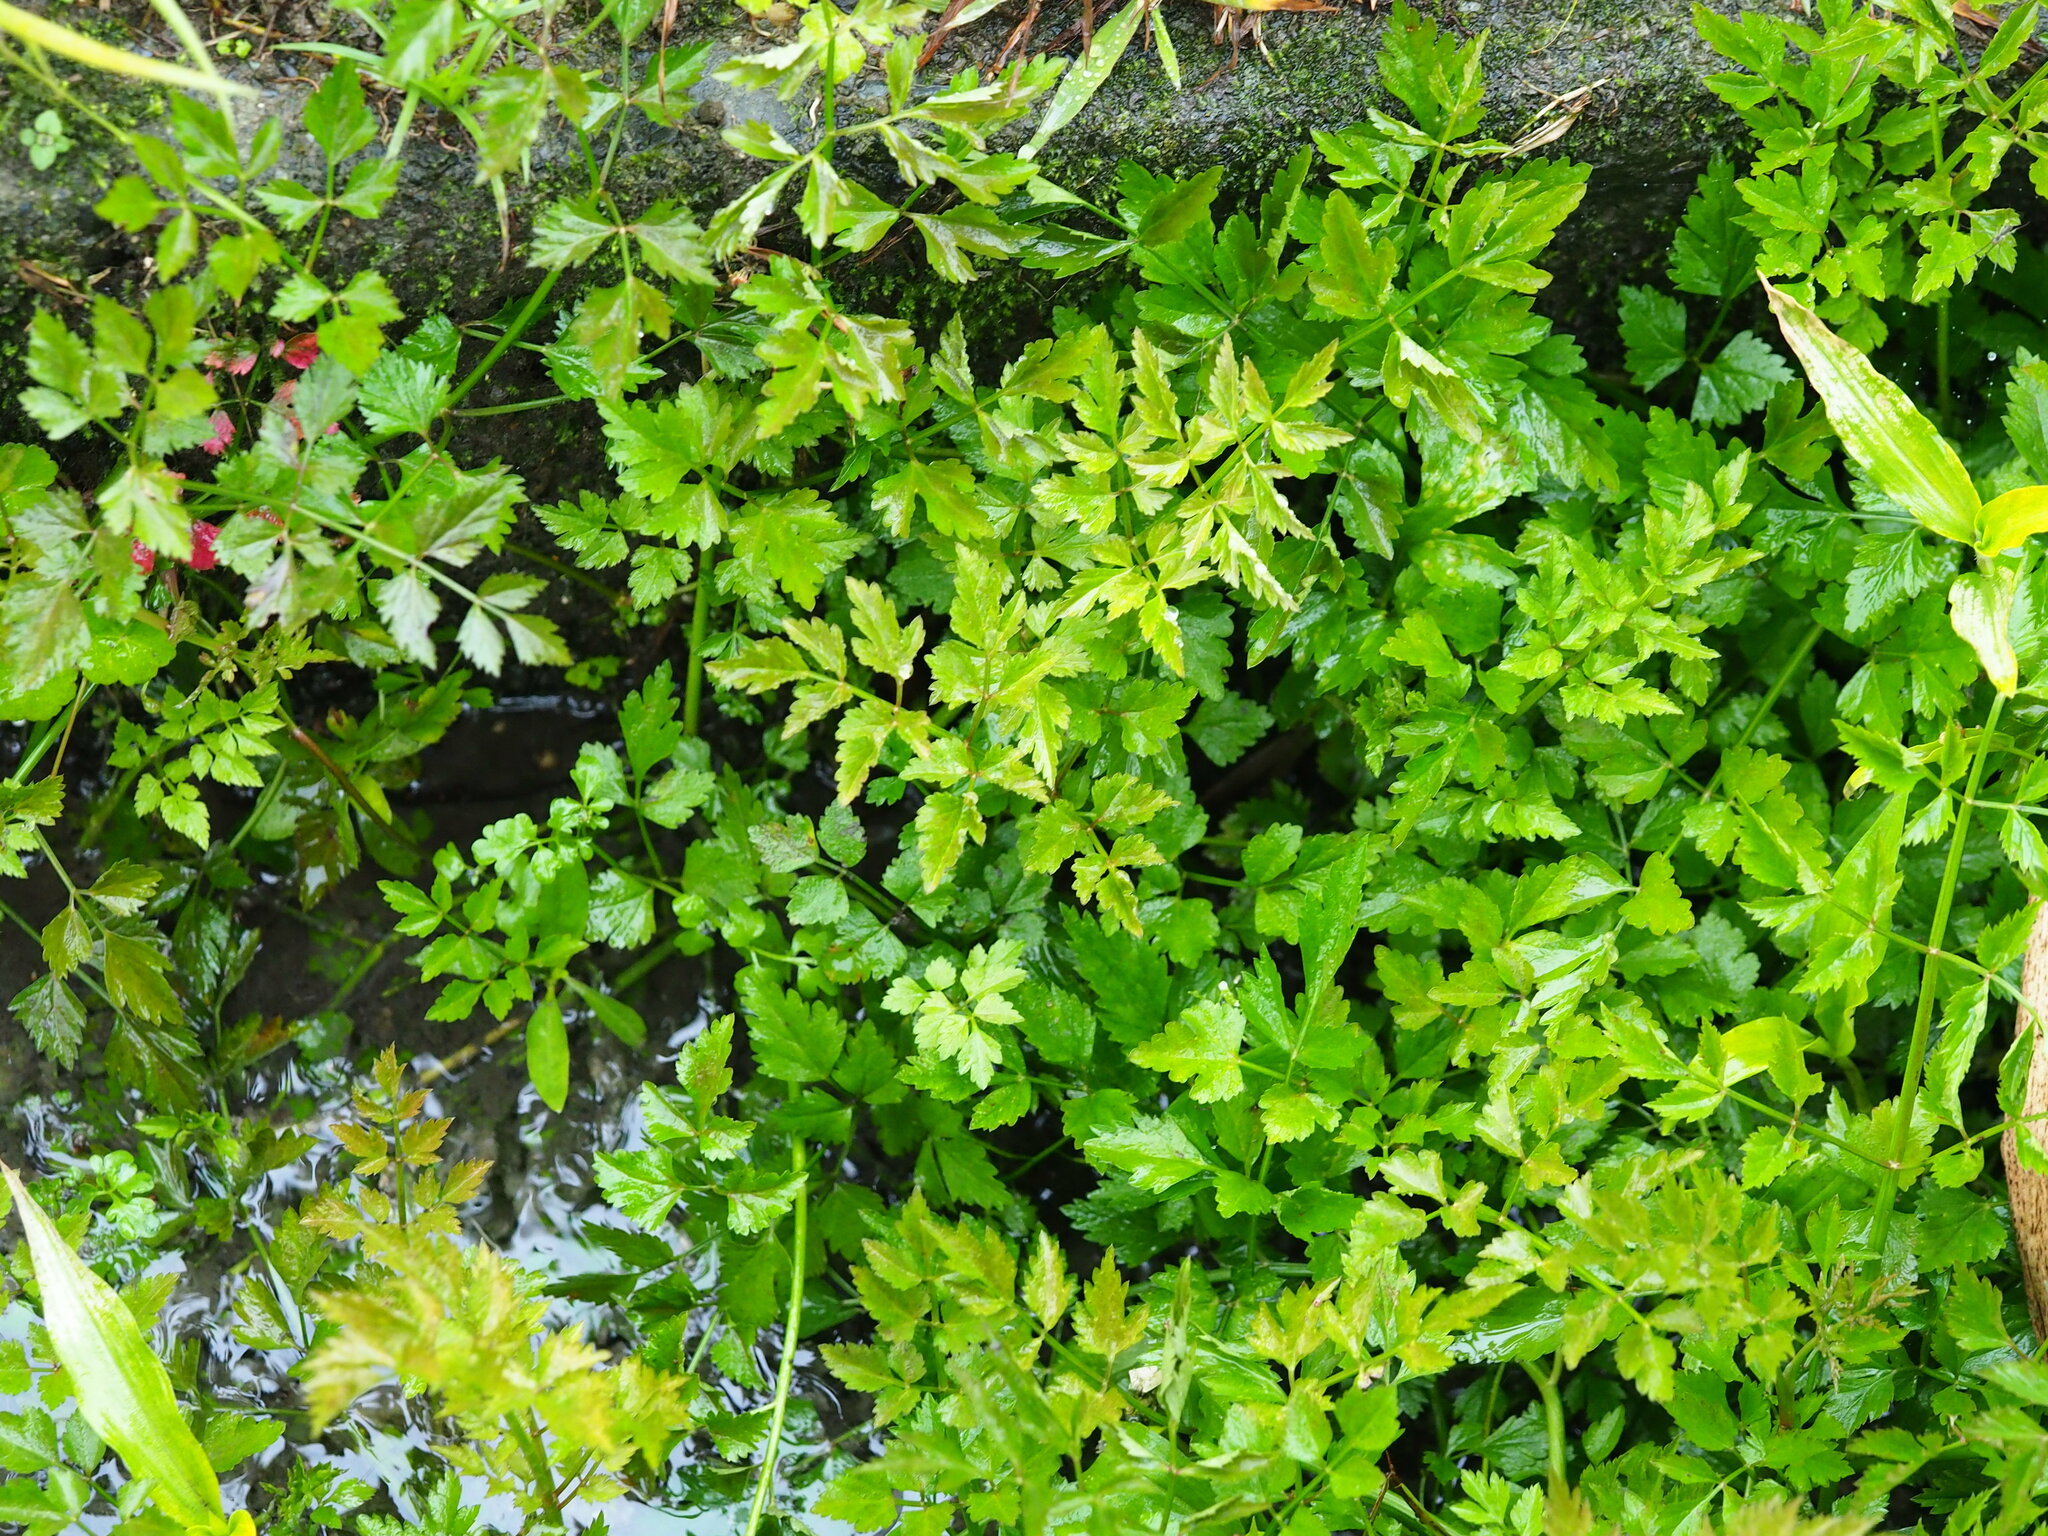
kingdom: Plantae
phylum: Tracheophyta
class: Magnoliopsida
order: Apiales
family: Apiaceae
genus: Oenanthe
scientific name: Oenanthe javanica
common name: Java water-dropwort
